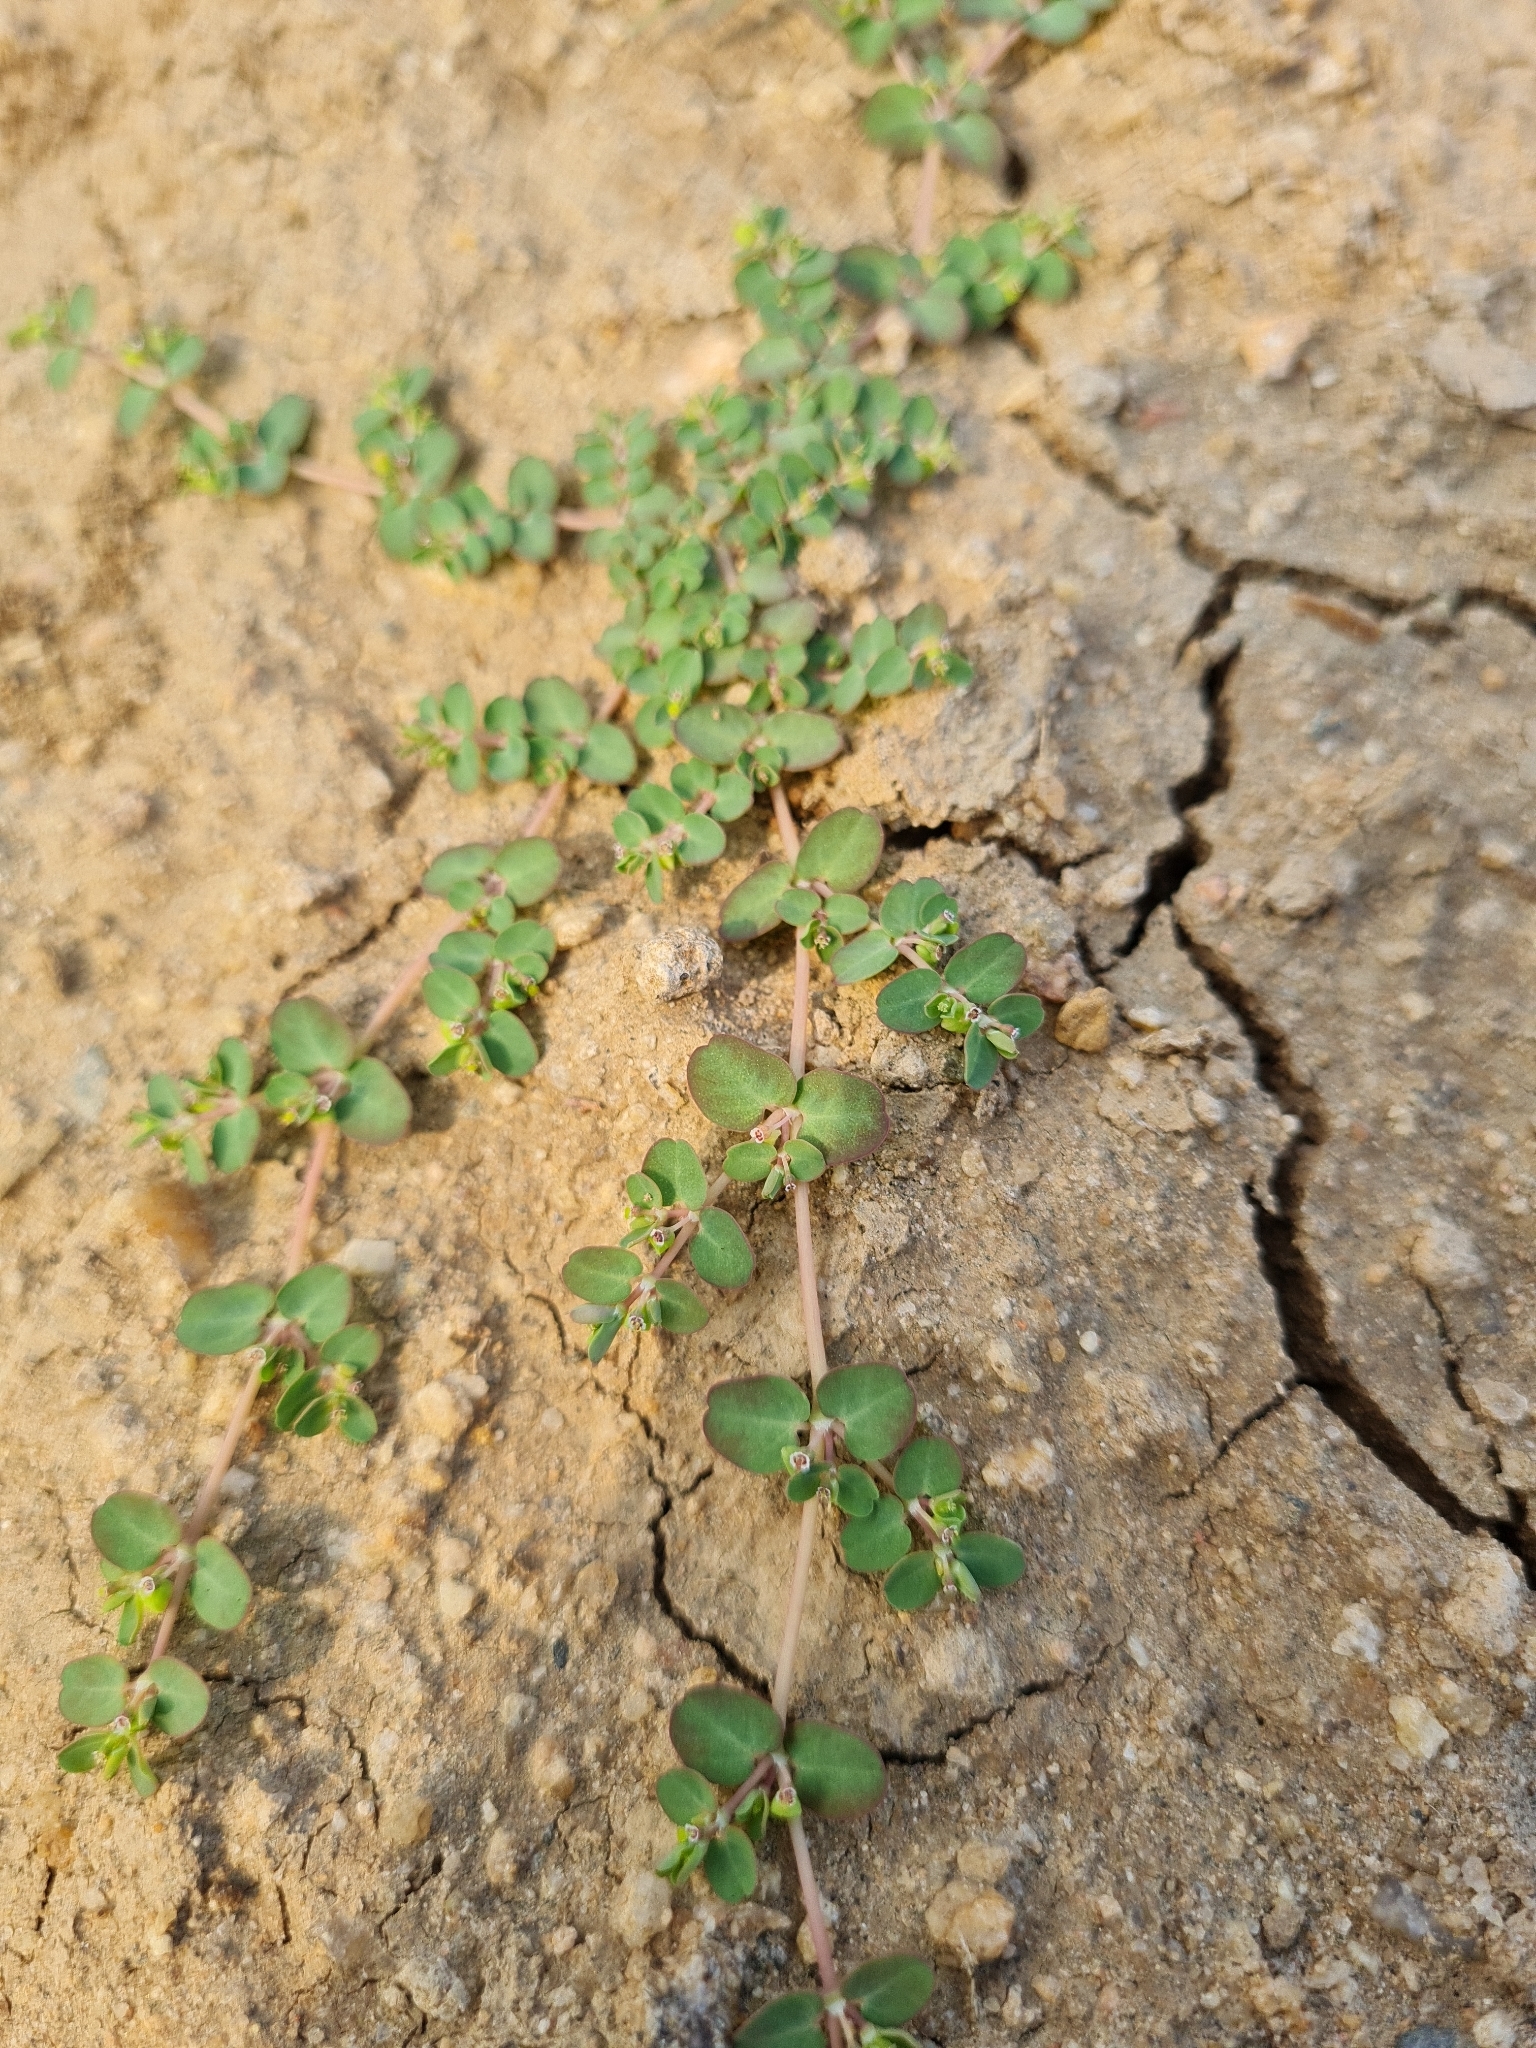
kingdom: Plantae
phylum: Tracheophyta
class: Magnoliopsida
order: Malpighiales
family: Euphorbiaceae
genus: Euphorbia
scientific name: Euphorbia serpens
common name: Matted sandmat
